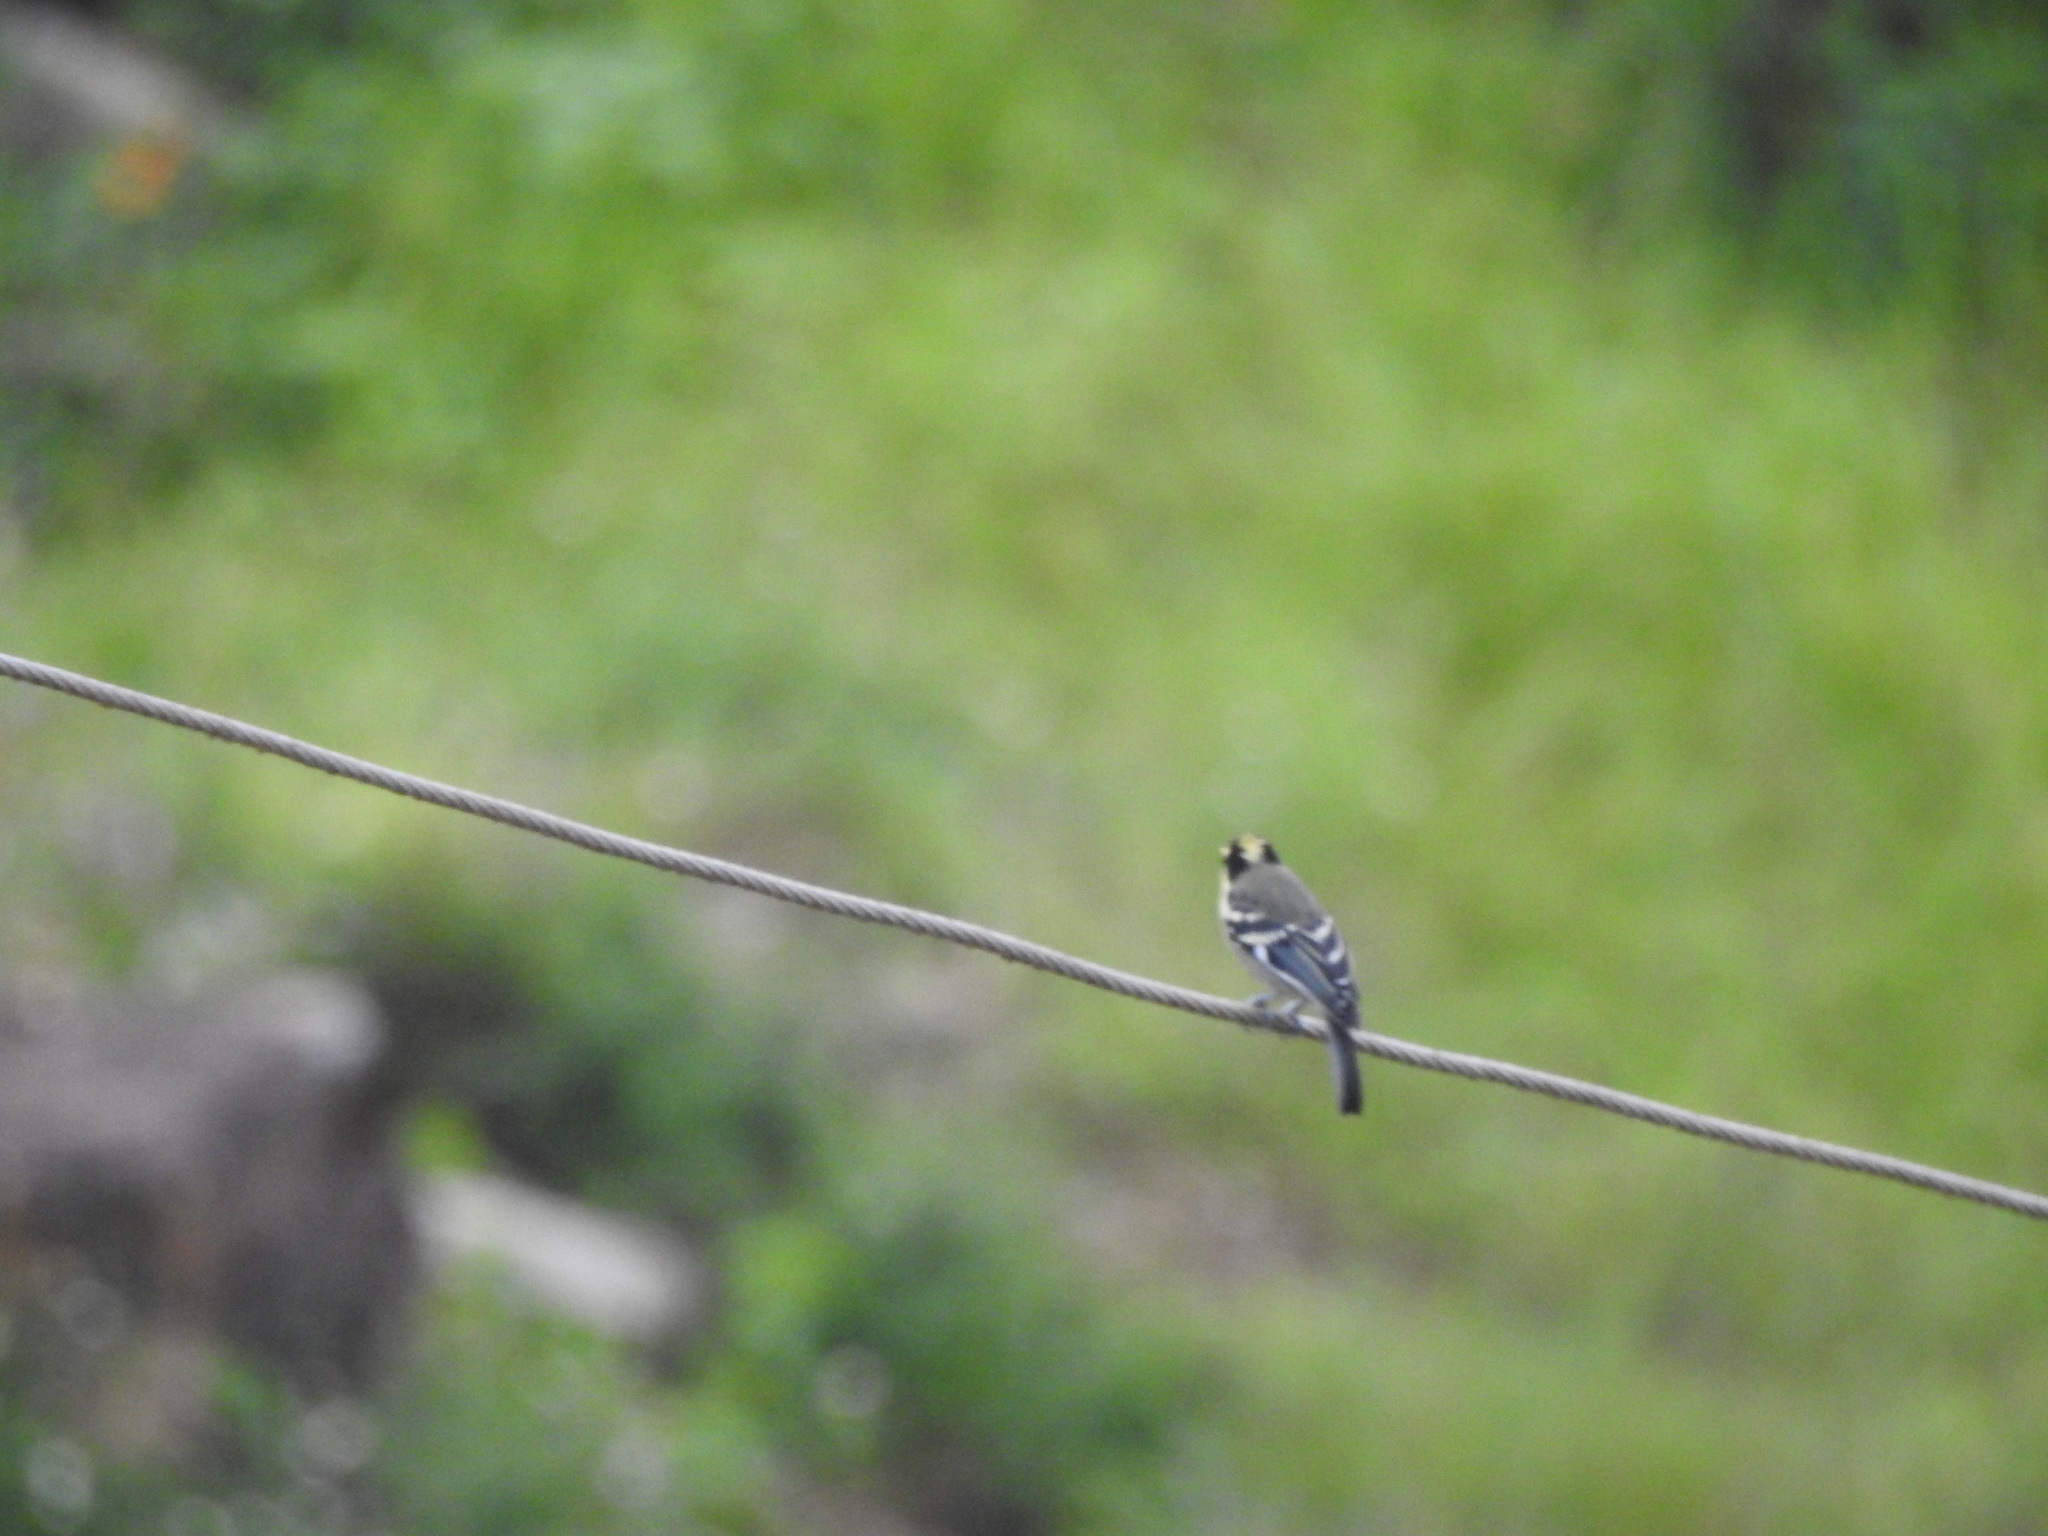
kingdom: Animalia
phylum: Chordata
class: Aves
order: Passeriformes
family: Paridae
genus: Parus
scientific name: Parus aplonotus
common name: Indian black-lored tit
